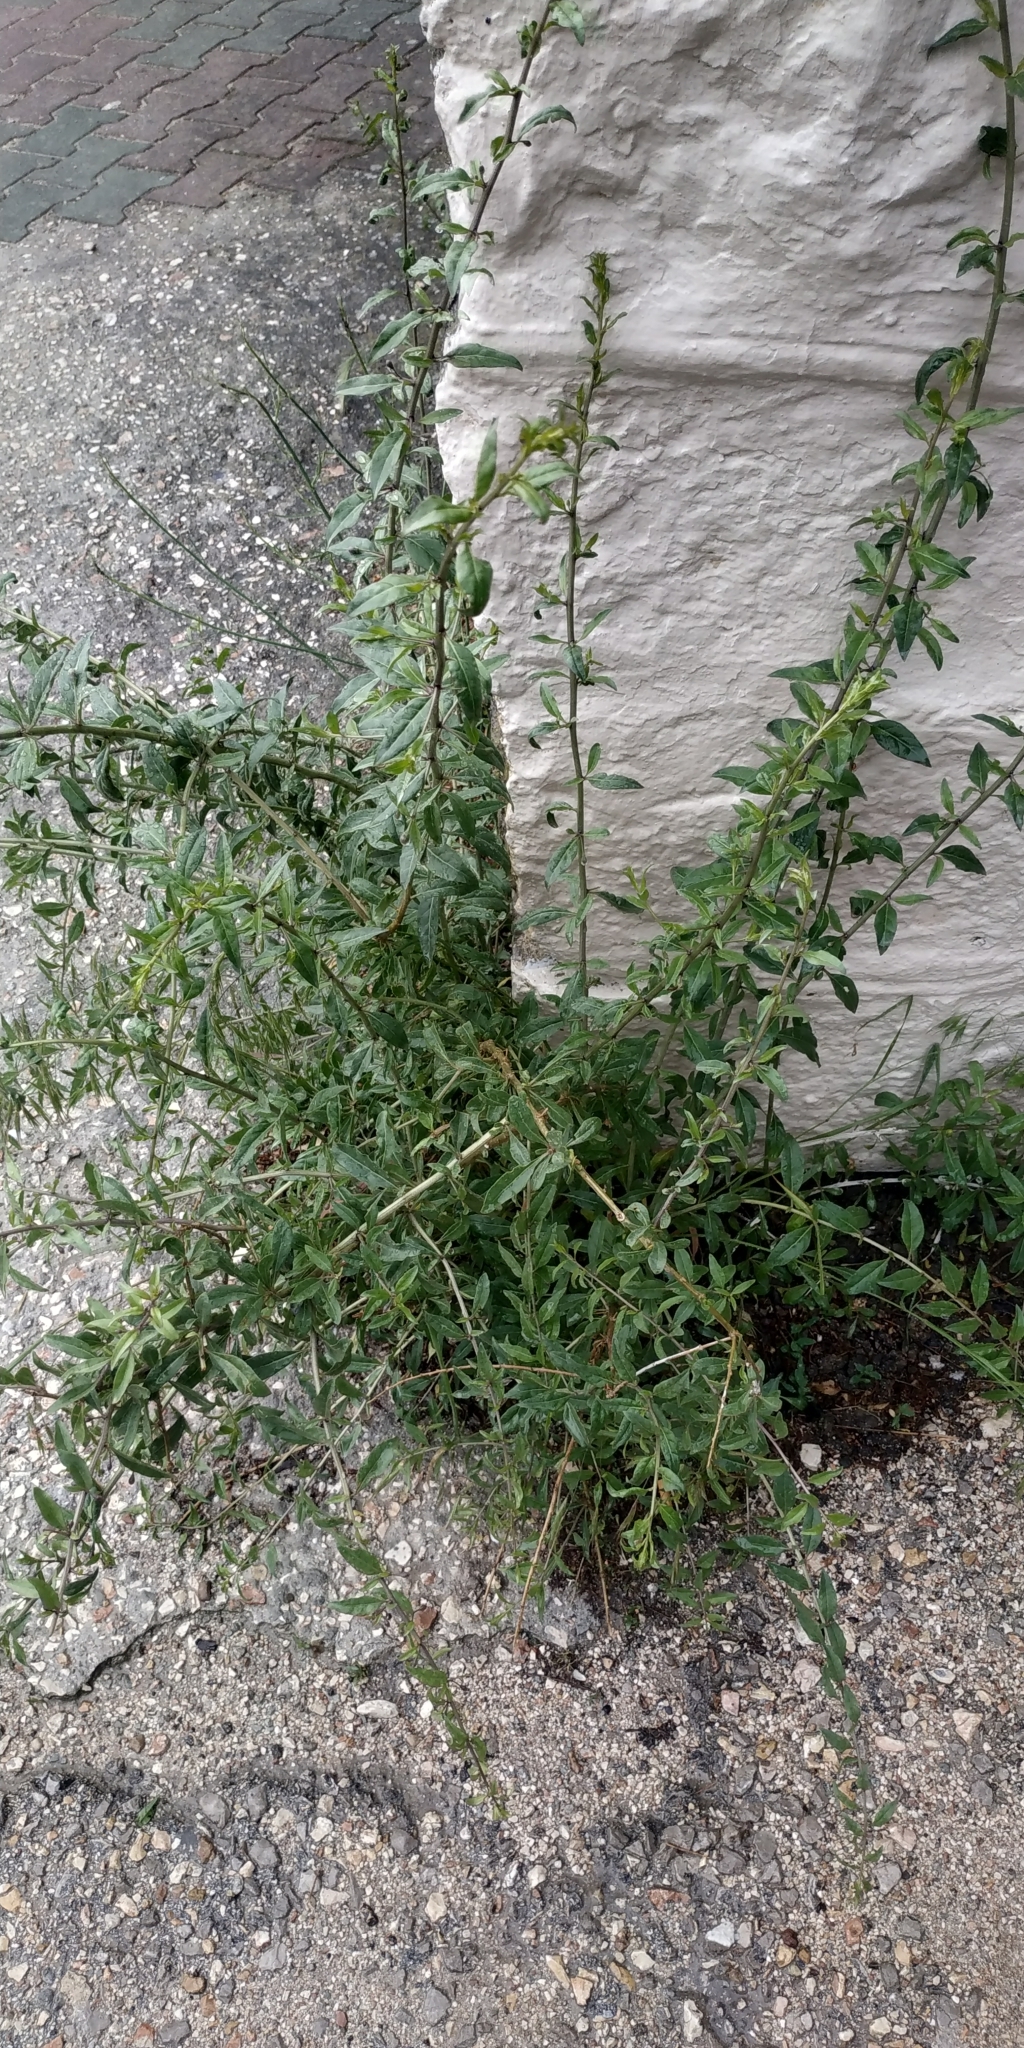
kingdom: Plantae
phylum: Tracheophyta
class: Magnoliopsida
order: Solanales
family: Solanaceae
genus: Lycium
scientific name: Lycium barbarum
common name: Duke of argyll's teaplant
